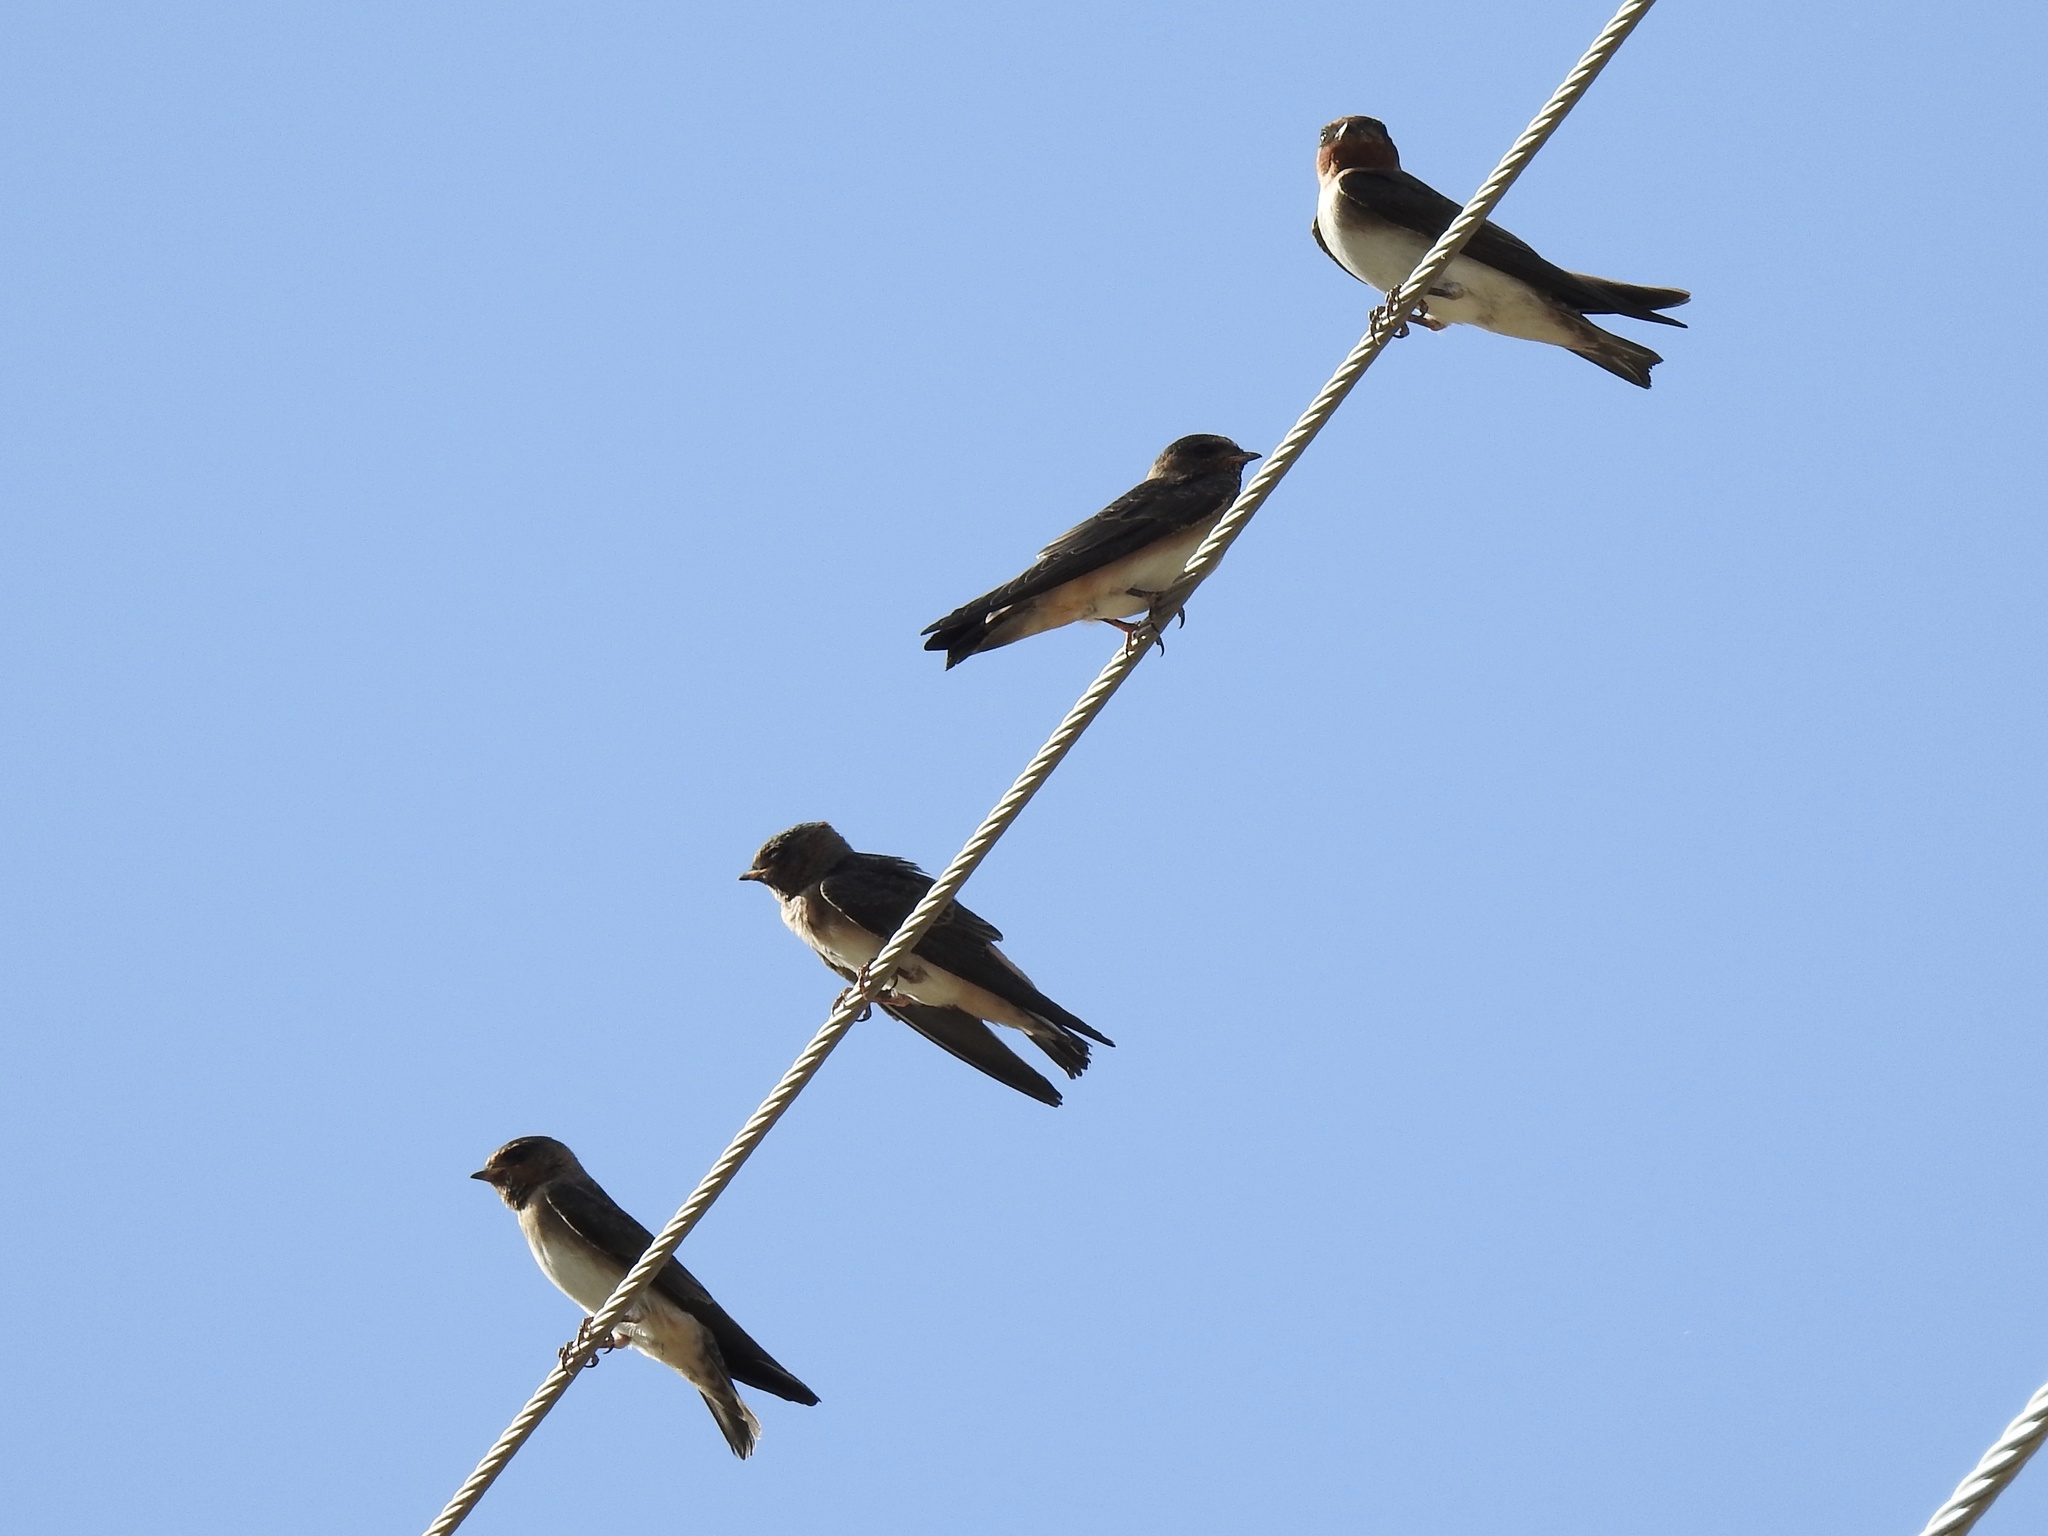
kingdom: Animalia
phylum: Chordata
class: Aves
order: Passeriformes
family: Hirundinidae
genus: Petrochelidon
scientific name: Petrochelidon pyrrhonota
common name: American cliff swallow
